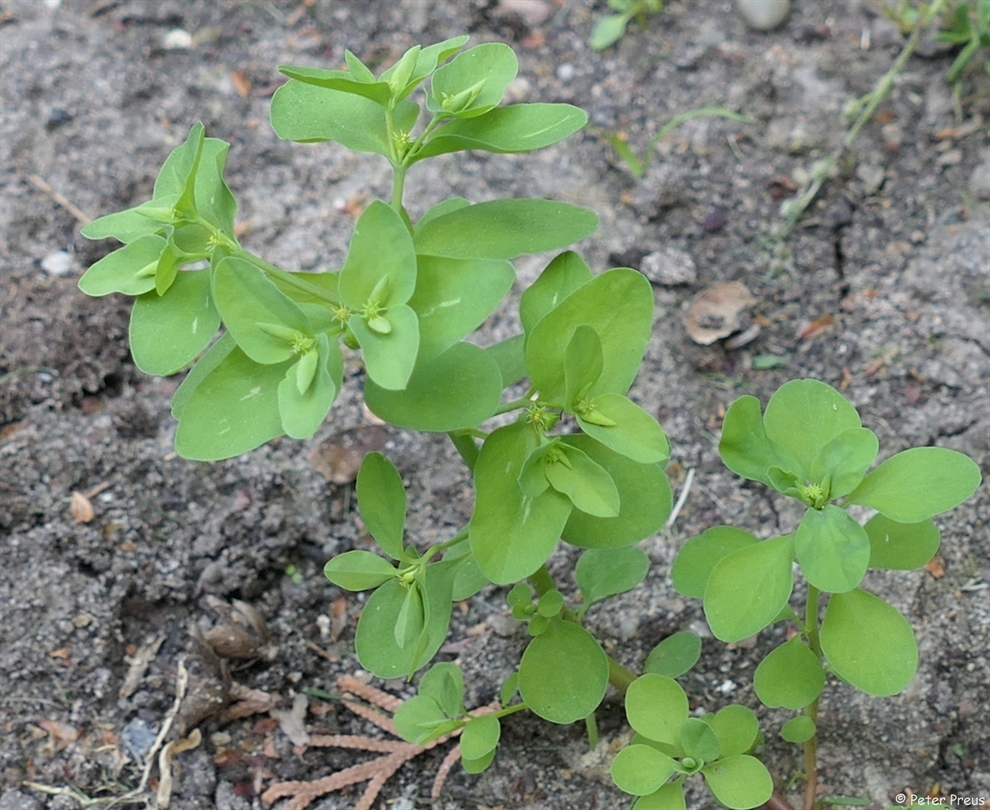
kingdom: Plantae
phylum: Tracheophyta
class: Magnoliopsida
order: Malpighiales
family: Euphorbiaceae
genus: Euphorbia
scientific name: Euphorbia peplus
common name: Petty spurge
